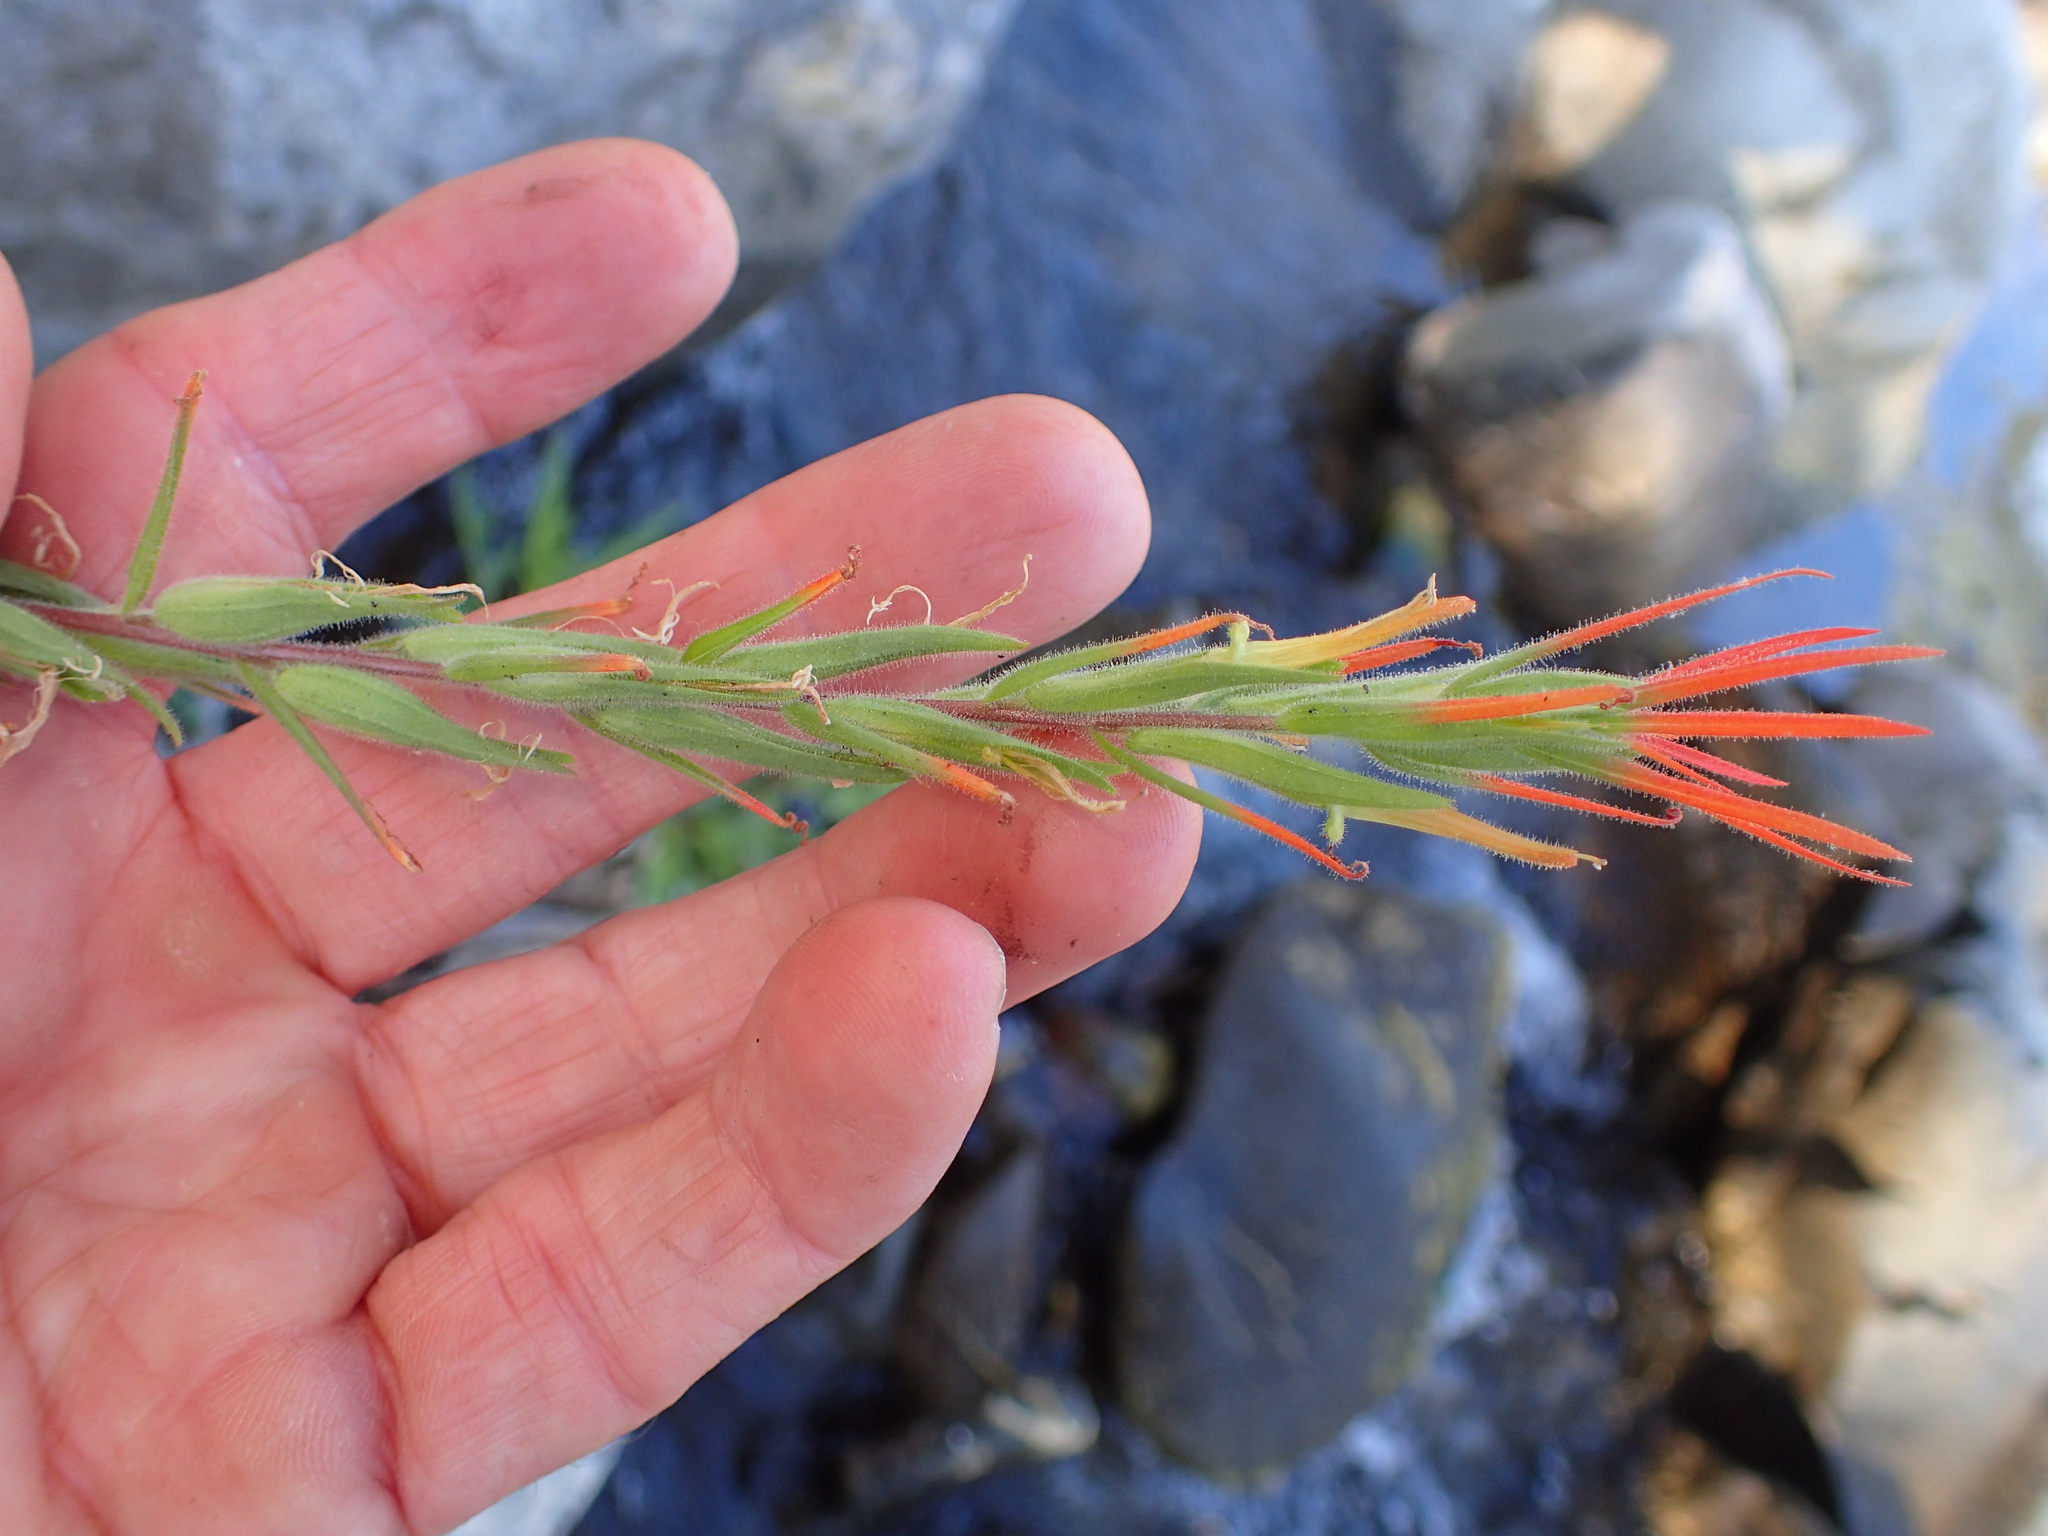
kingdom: Plantae
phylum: Tracheophyta
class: Magnoliopsida
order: Lamiales
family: Orobanchaceae
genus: Castilleja
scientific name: Castilleja minor
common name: Seep paintbrush
